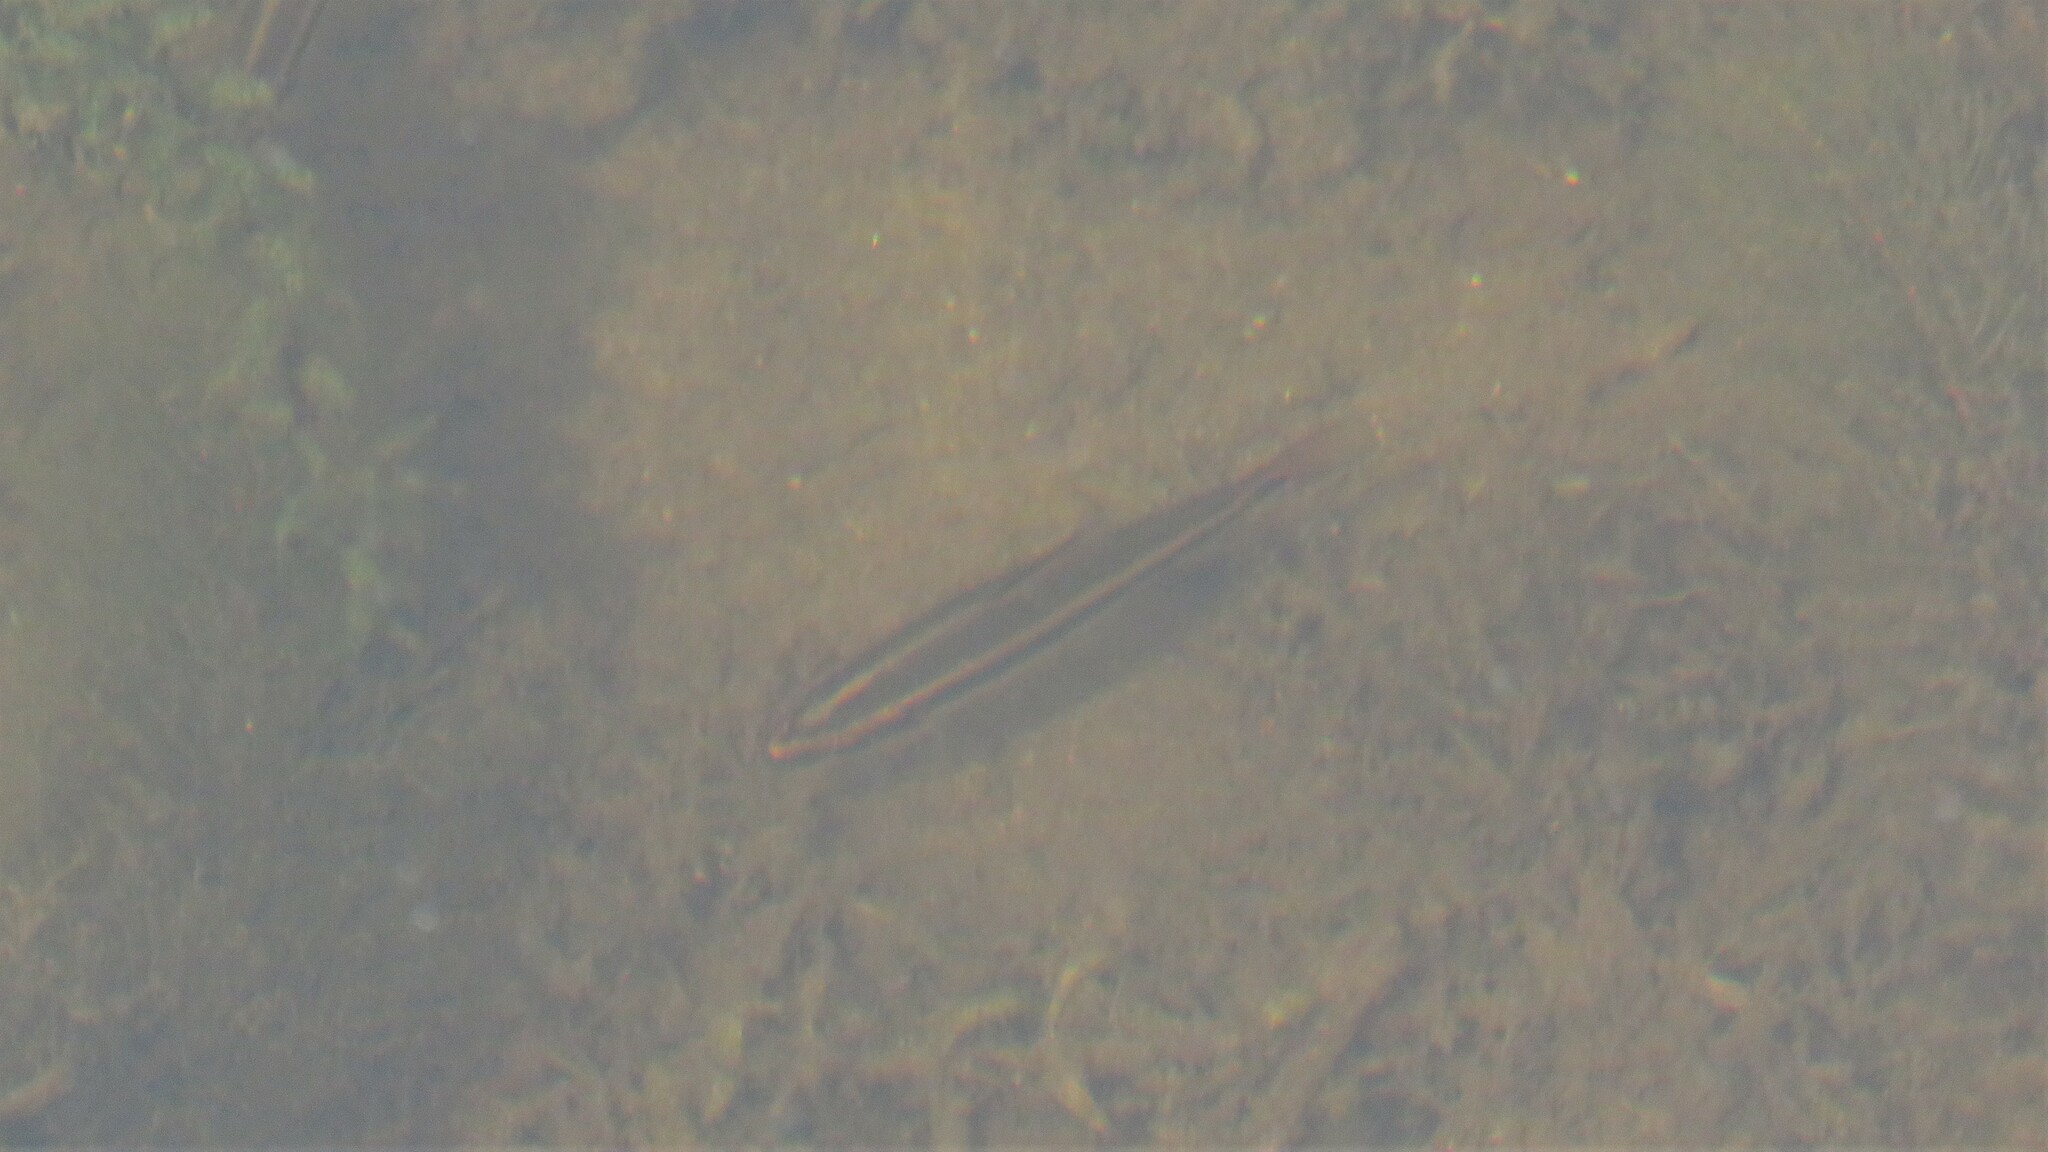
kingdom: Animalia
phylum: Chordata
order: Cypriniformes
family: Catostomidae
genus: Erimyzon
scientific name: Erimyzon sucetta
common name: Lake chubsucker
